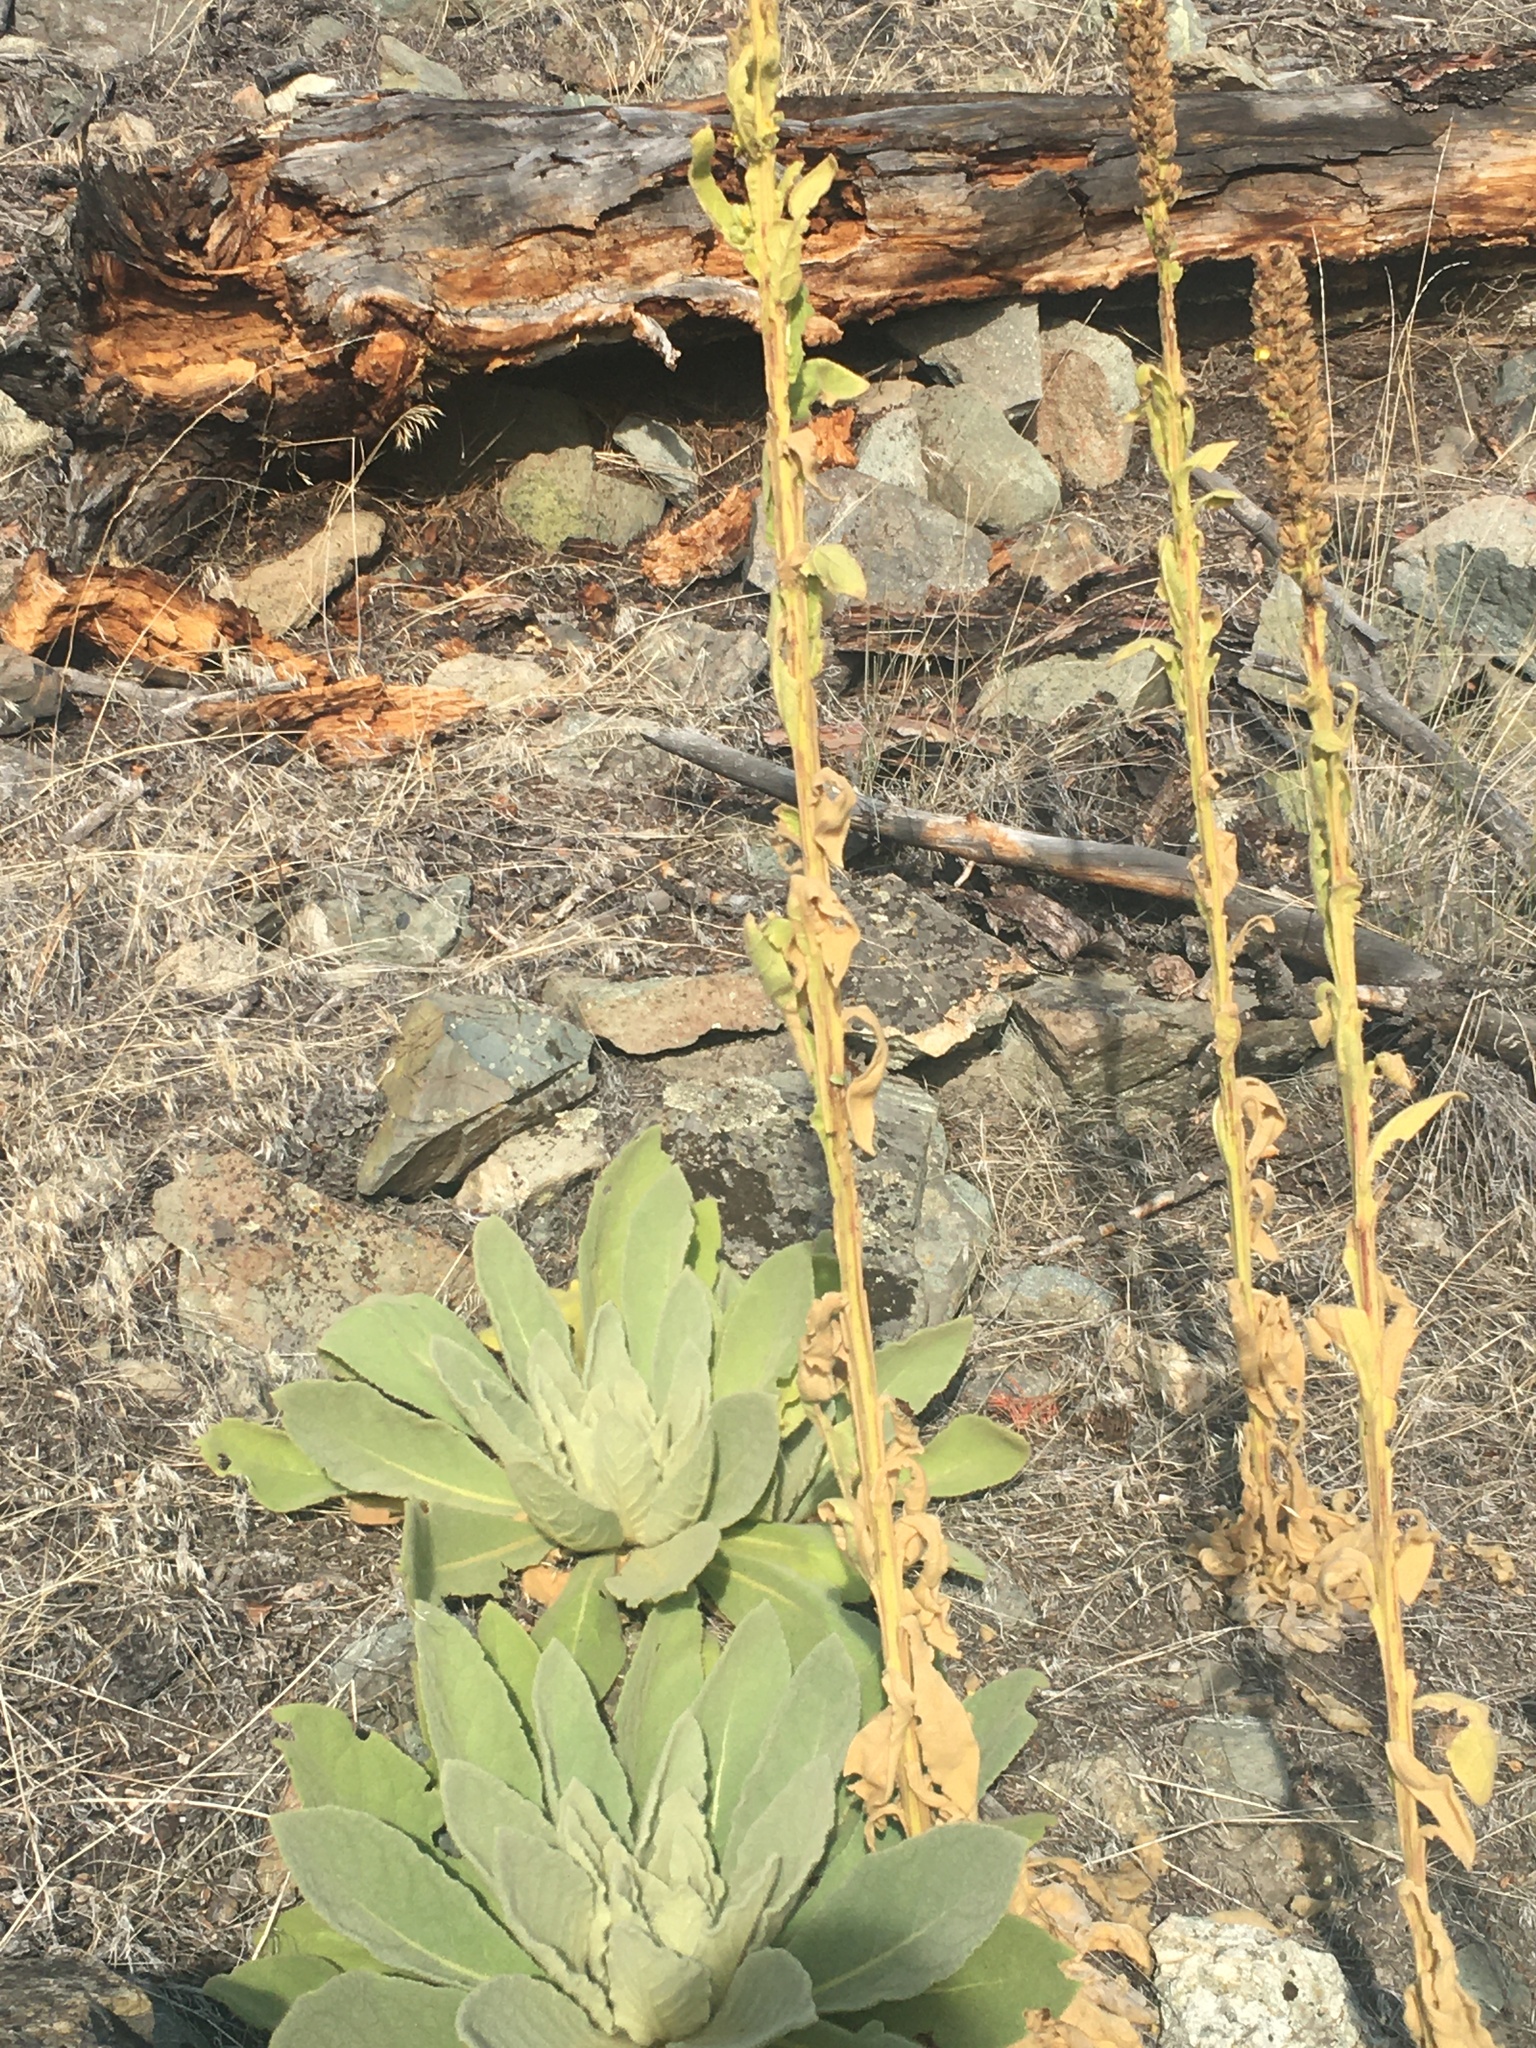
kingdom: Plantae
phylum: Tracheophyta
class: Magnoliopsida
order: Lamiales
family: Scrophulariaceae
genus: Verbascum
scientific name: Verbascum thapsus
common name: Common mullein
